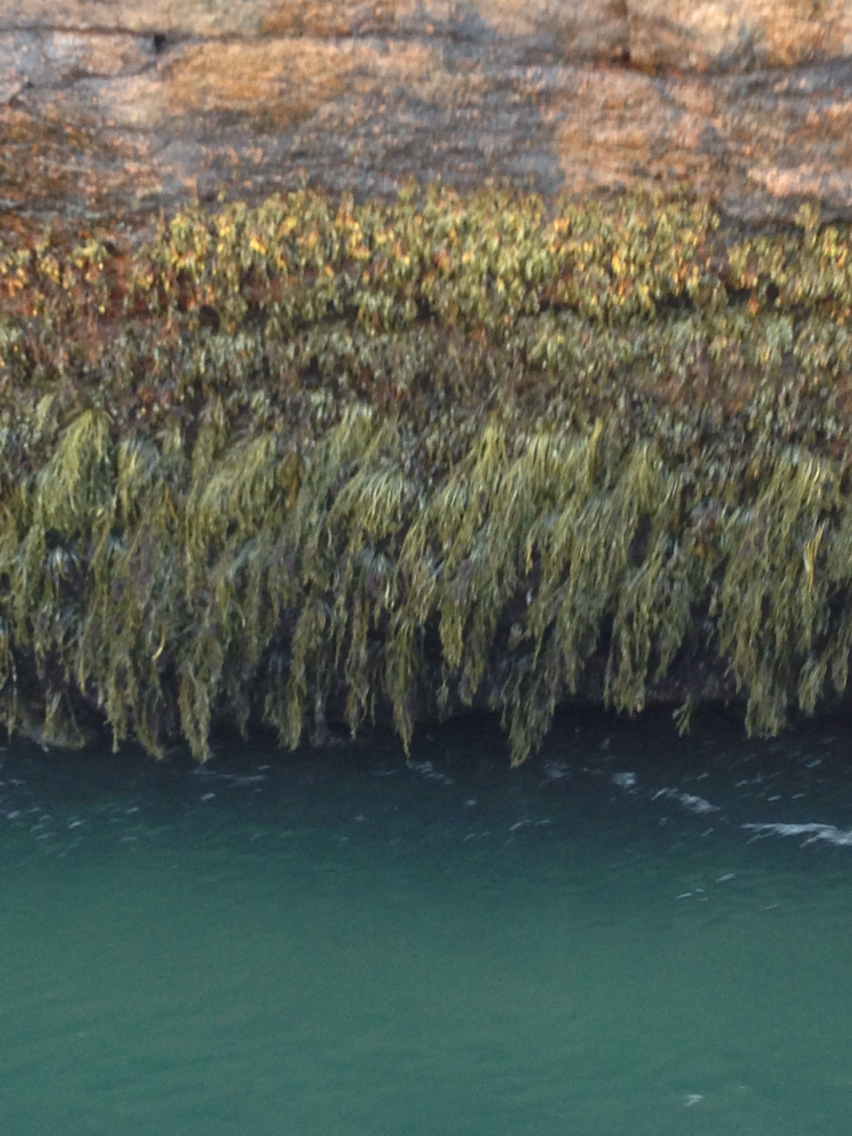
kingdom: Chromista
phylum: Ochrophyta
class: Phaeophyceae
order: Fucales
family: Fucaceae
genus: Fucus
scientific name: Fucus
